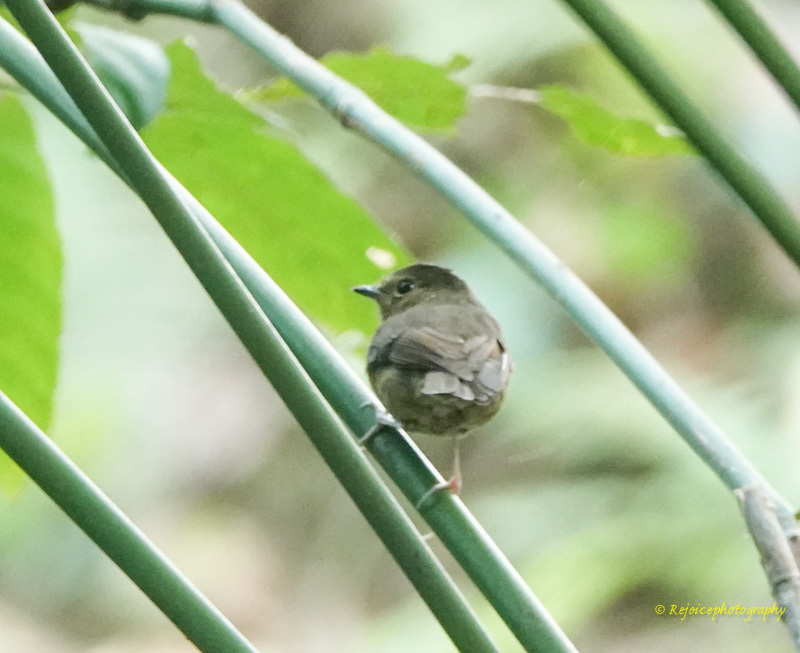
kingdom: Animalia
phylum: Chordata
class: Aves
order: Passeriformes
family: Muscicapidae
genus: Ficedula
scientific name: Ficedula hyperythra
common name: Snowy-browed flycatcher
